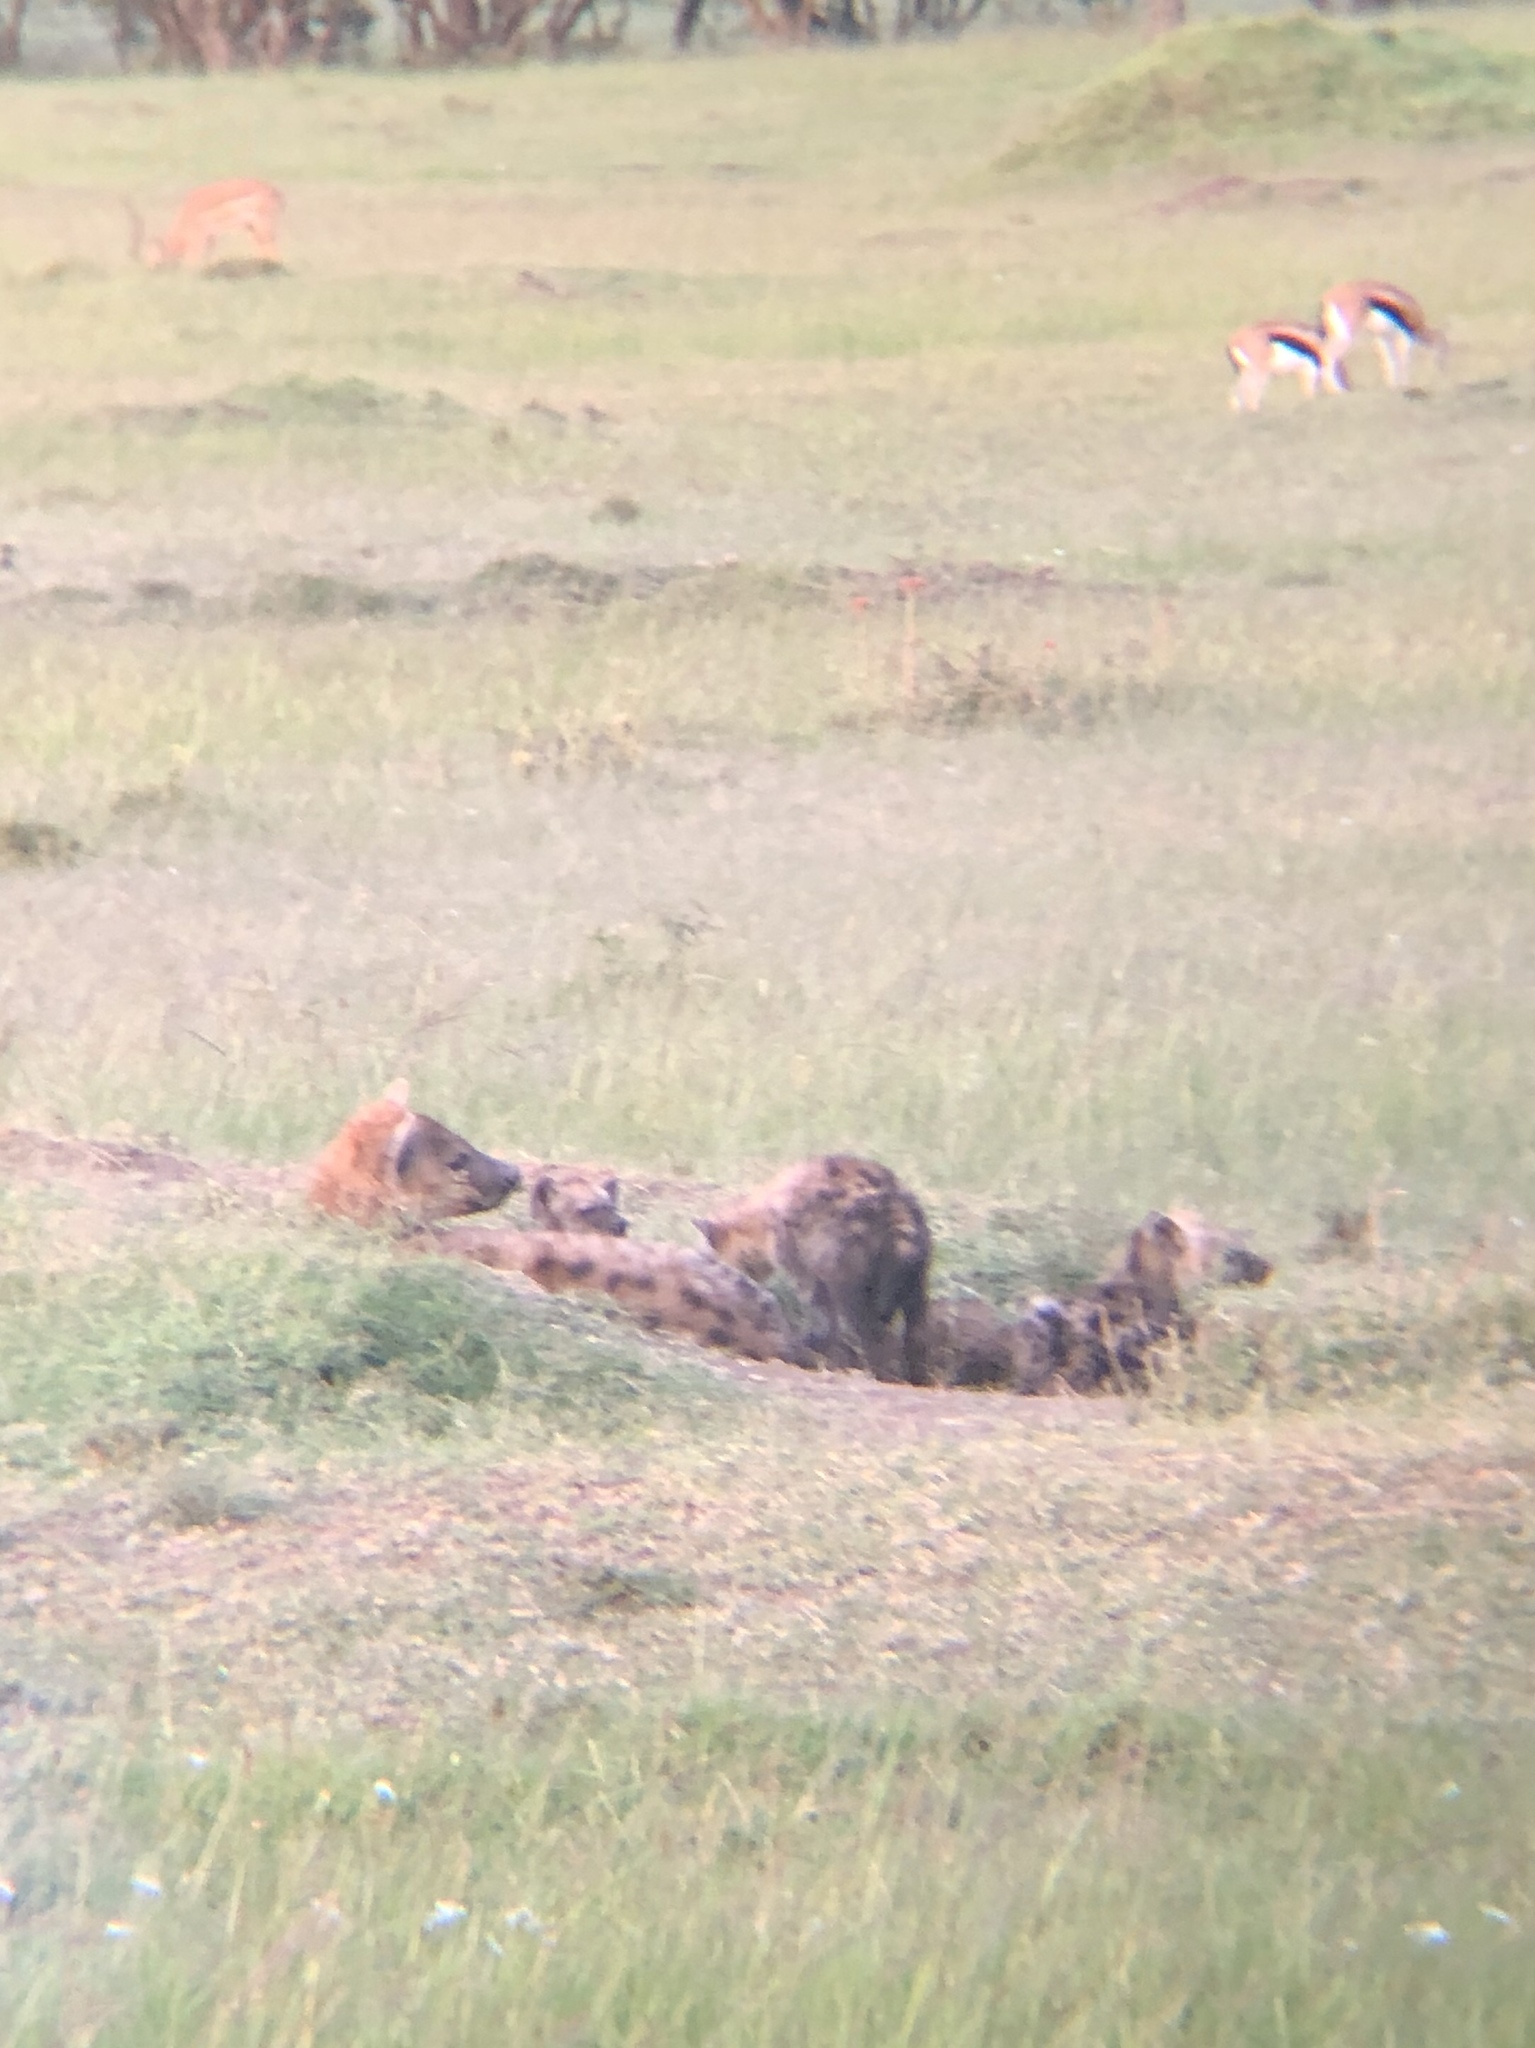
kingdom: Animalia
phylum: Chordata
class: Mammalia
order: Carnivora
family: Hyaenidae
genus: Crocuta
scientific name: Crocuta crocuta
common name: Spotted hyaena
